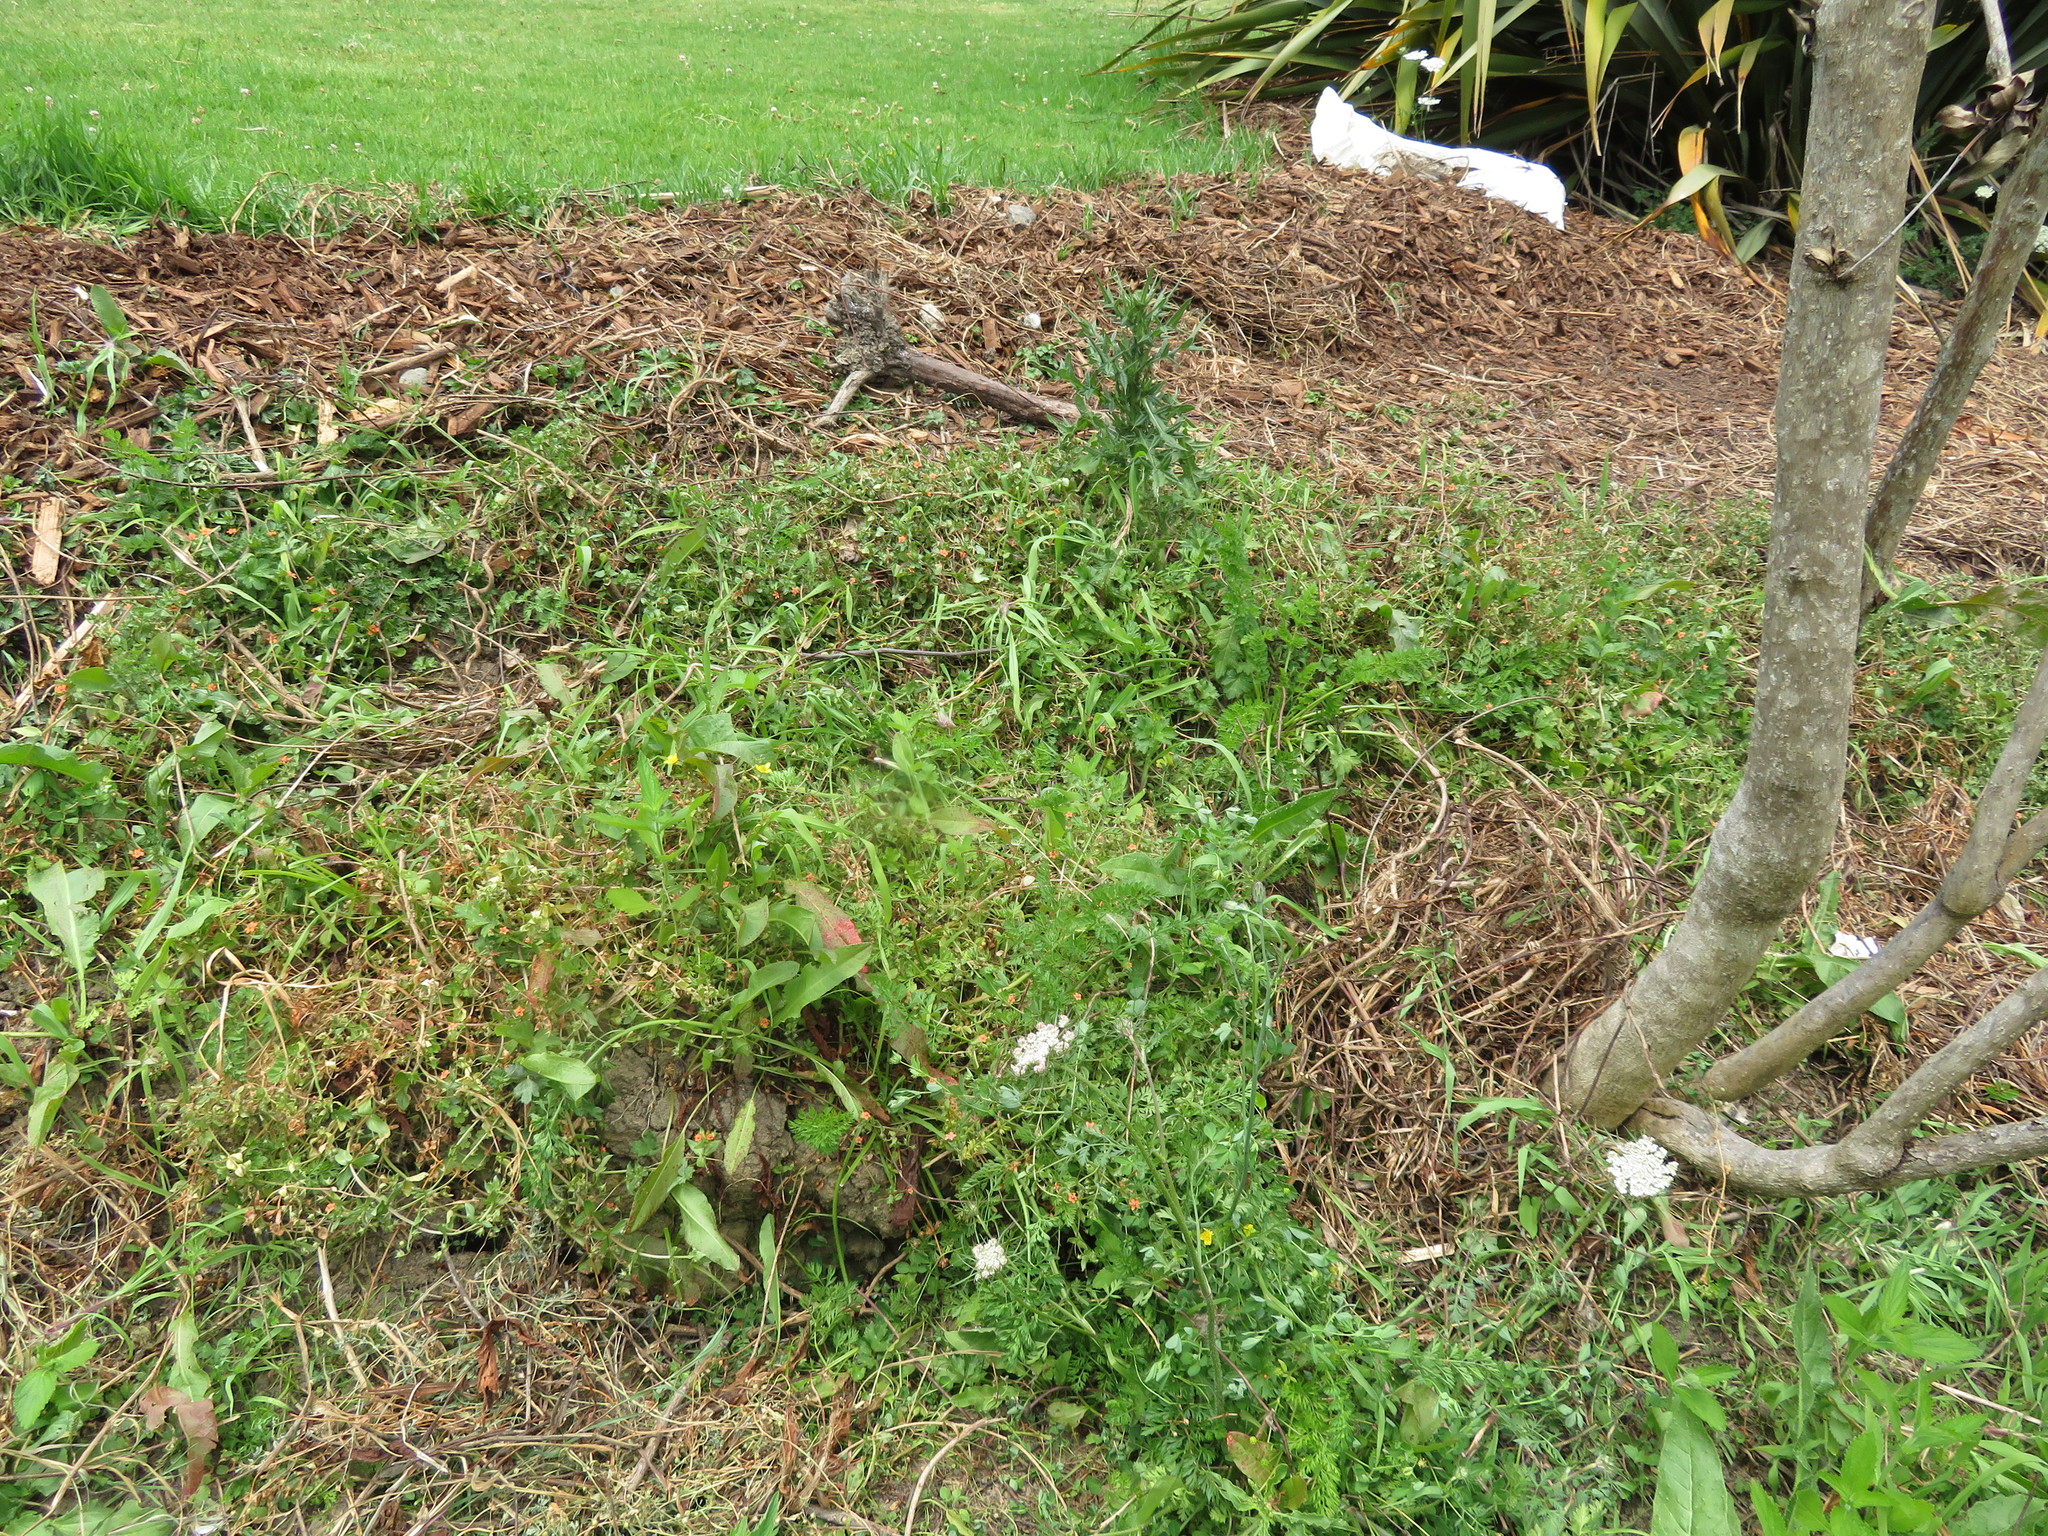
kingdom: Plantae
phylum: Tracheophyta
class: Magnoliopsida
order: Ericales
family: Primulaceae
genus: Lysimachia
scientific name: Lysimachia arvensis
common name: Scarlet pimpernel
